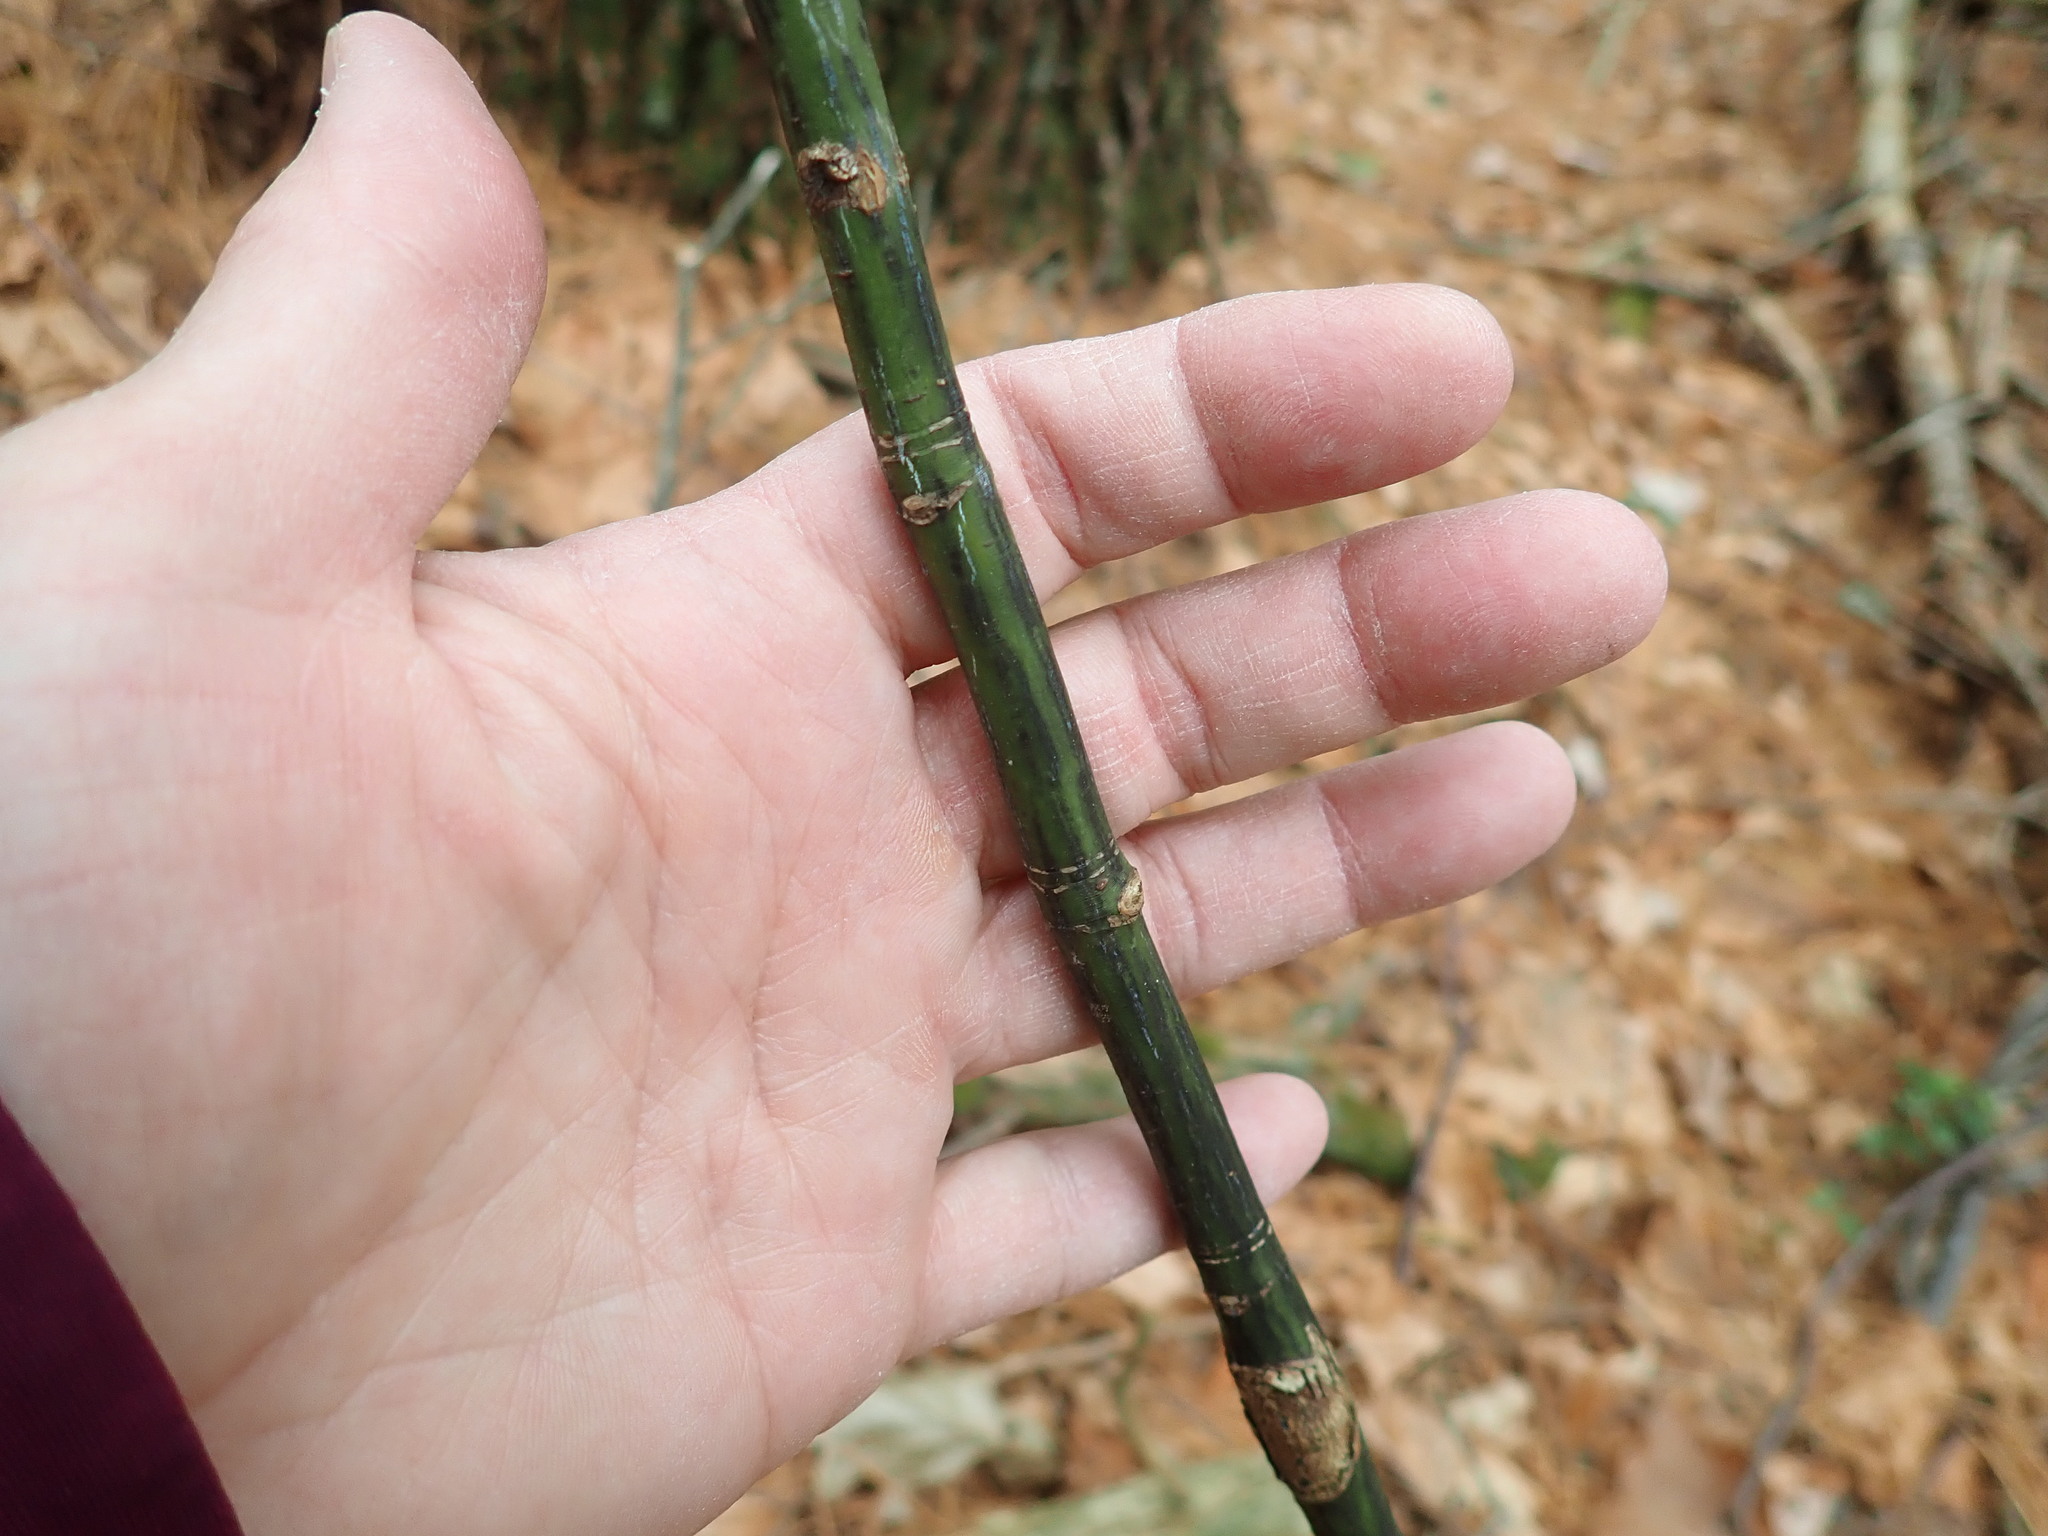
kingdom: Plantae
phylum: Tracheophyta
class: Magnoliopsida
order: Sapindales
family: Sapindaceae
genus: Acer
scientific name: Acer pensylvanicum
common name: Moosewood
